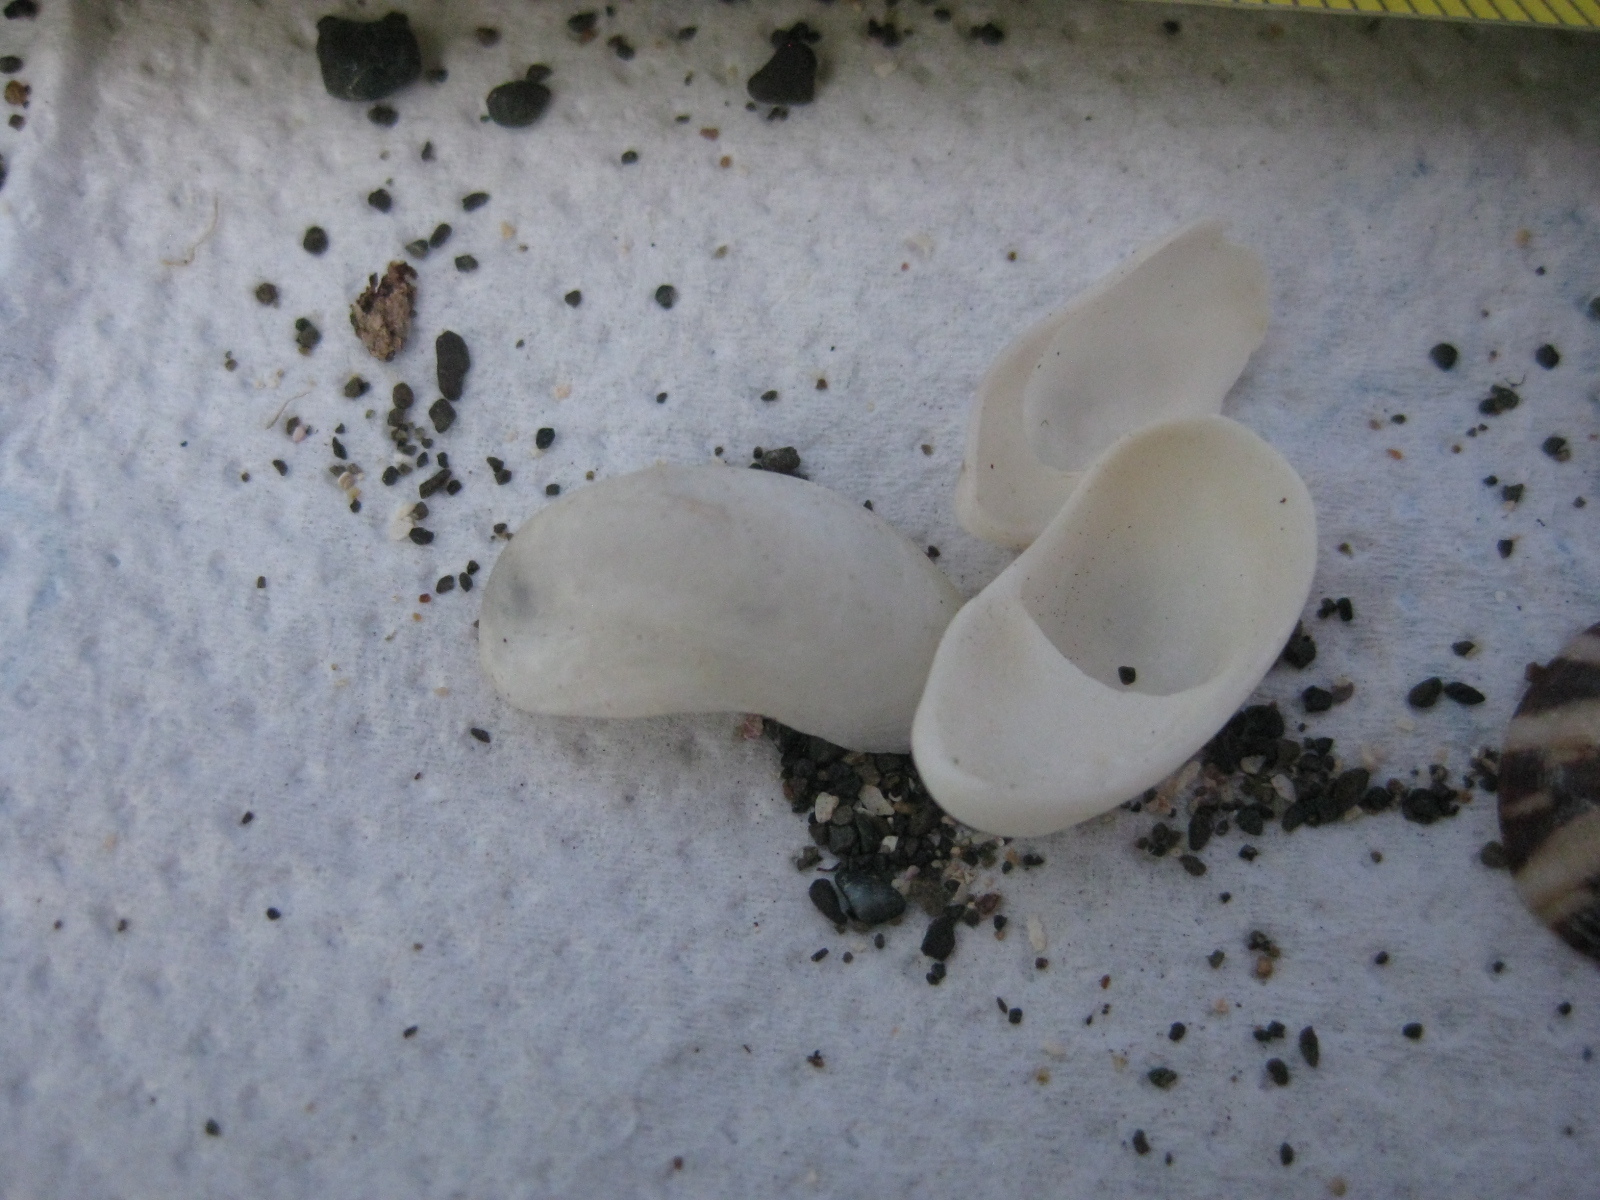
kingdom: Animalia
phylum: Mollusca
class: Gastropoda
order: Littorinimorpha
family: Calyptraeidae
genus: Maoricrypta
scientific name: Maoricrypta monoxyla
